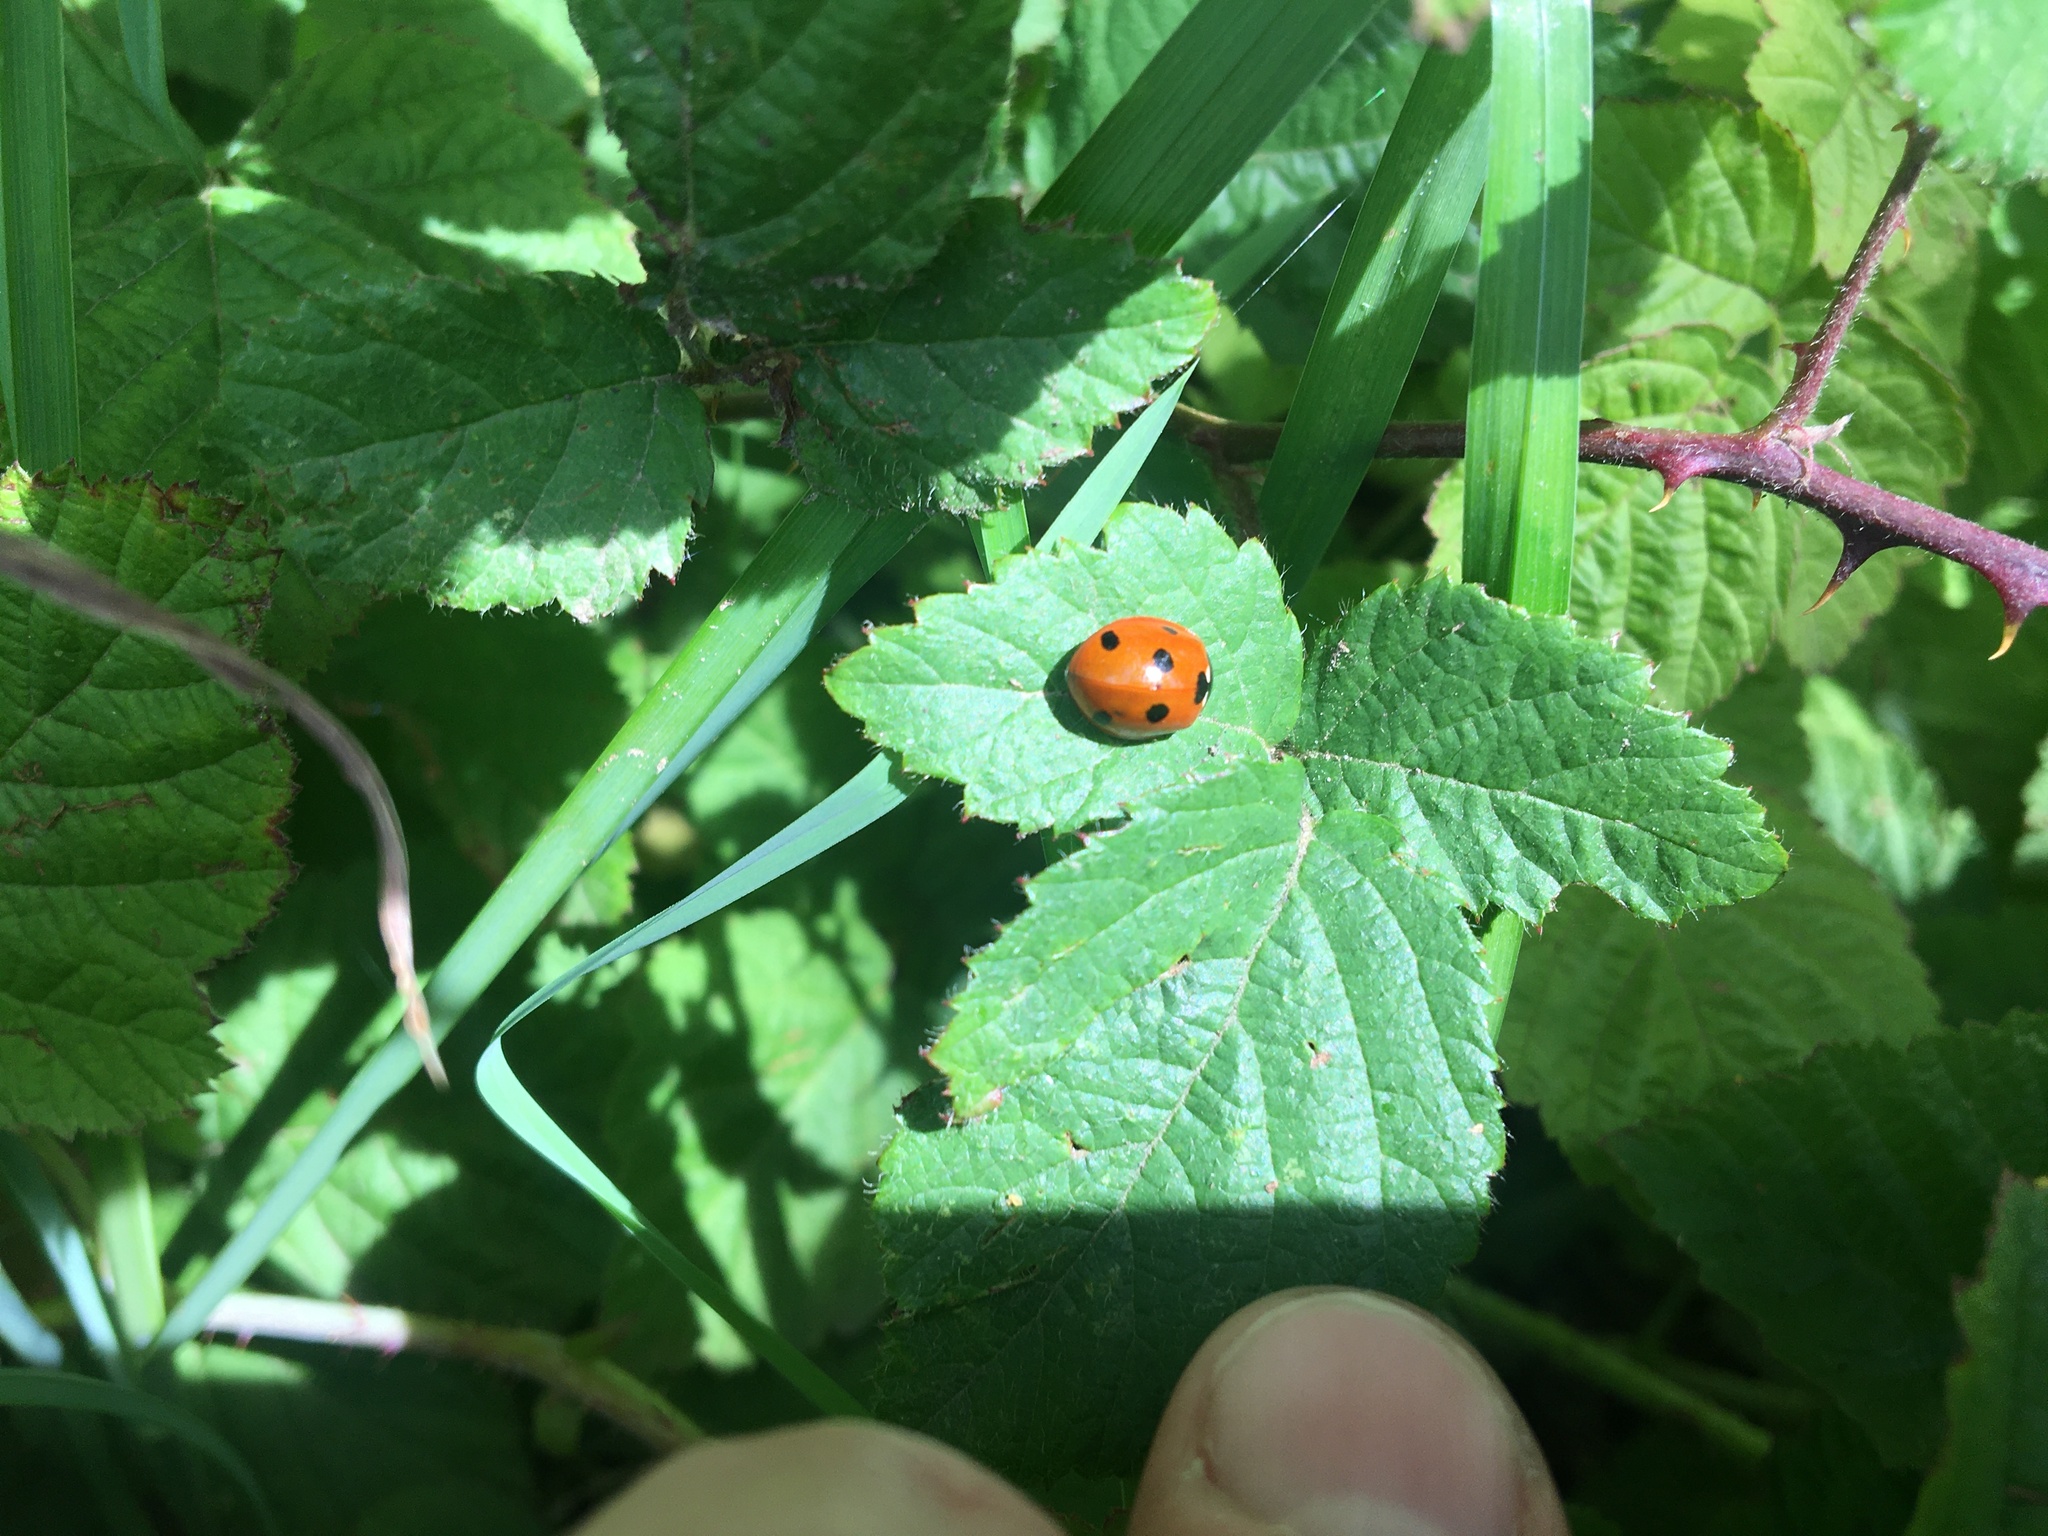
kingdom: Animalia
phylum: Arthropoda
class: Insecta
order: Coleoptera
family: Coccinellidae
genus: Coccinella
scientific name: Coccinella septempunctata
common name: Sevenspotted lady beetle
